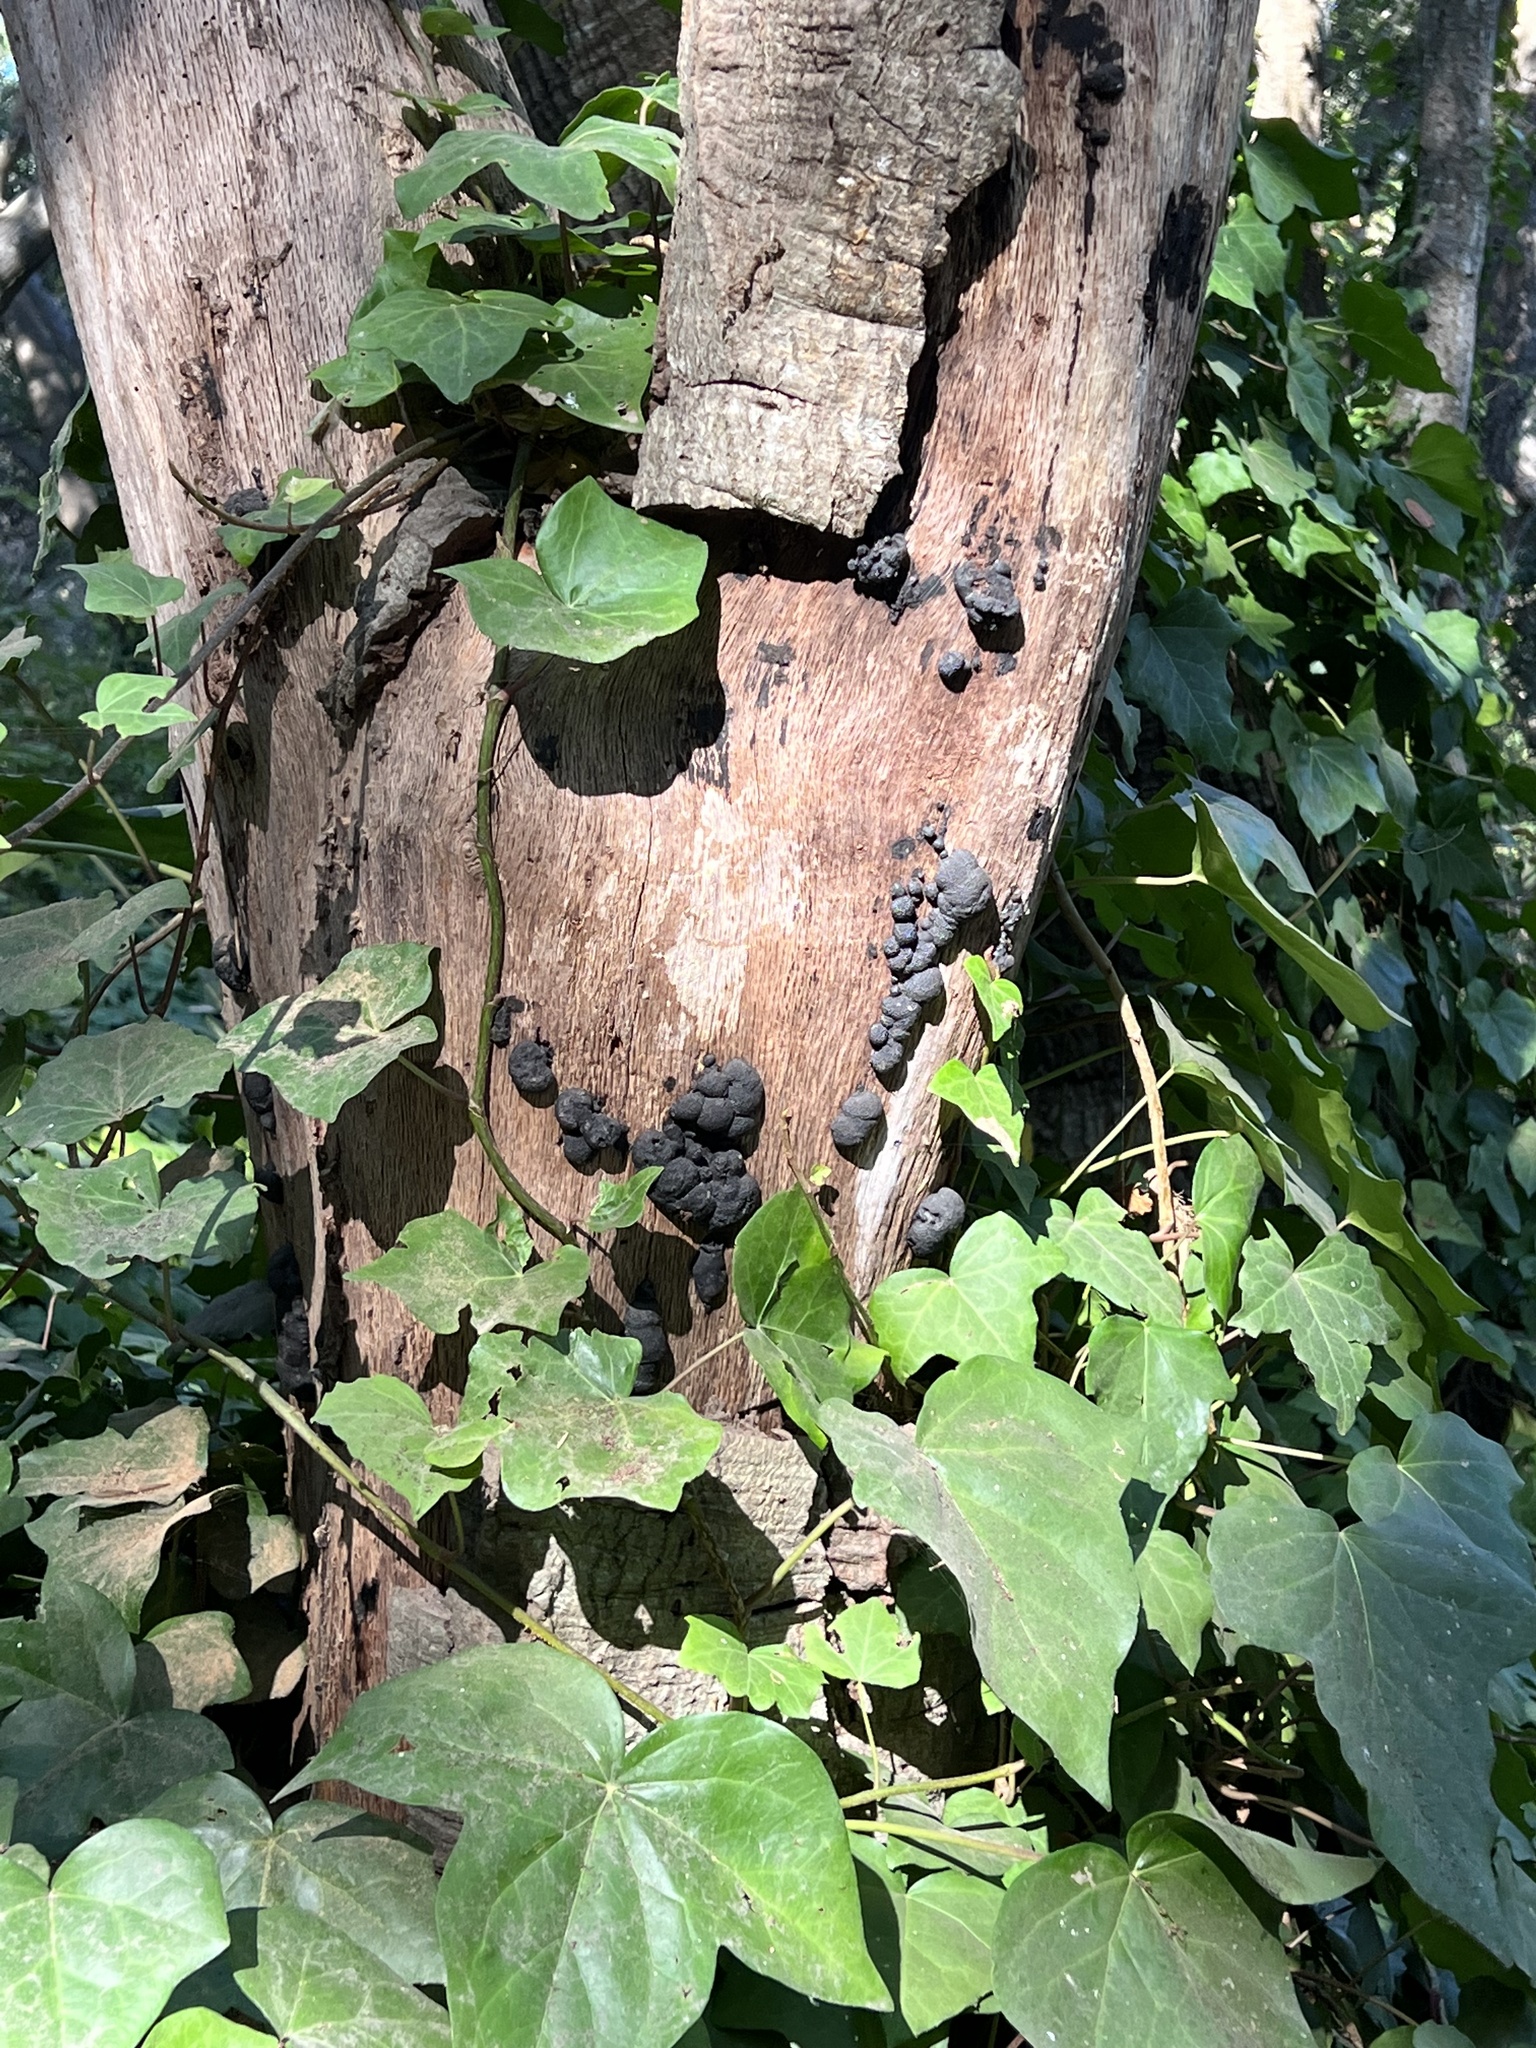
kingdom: Fungi
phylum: Ascomycota
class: Sordariomycetes
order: Xylariales
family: Hypoxylaceae
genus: Annulohypoxylon
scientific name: Annulohypoxylon thouarsianum
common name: Cramp balls
